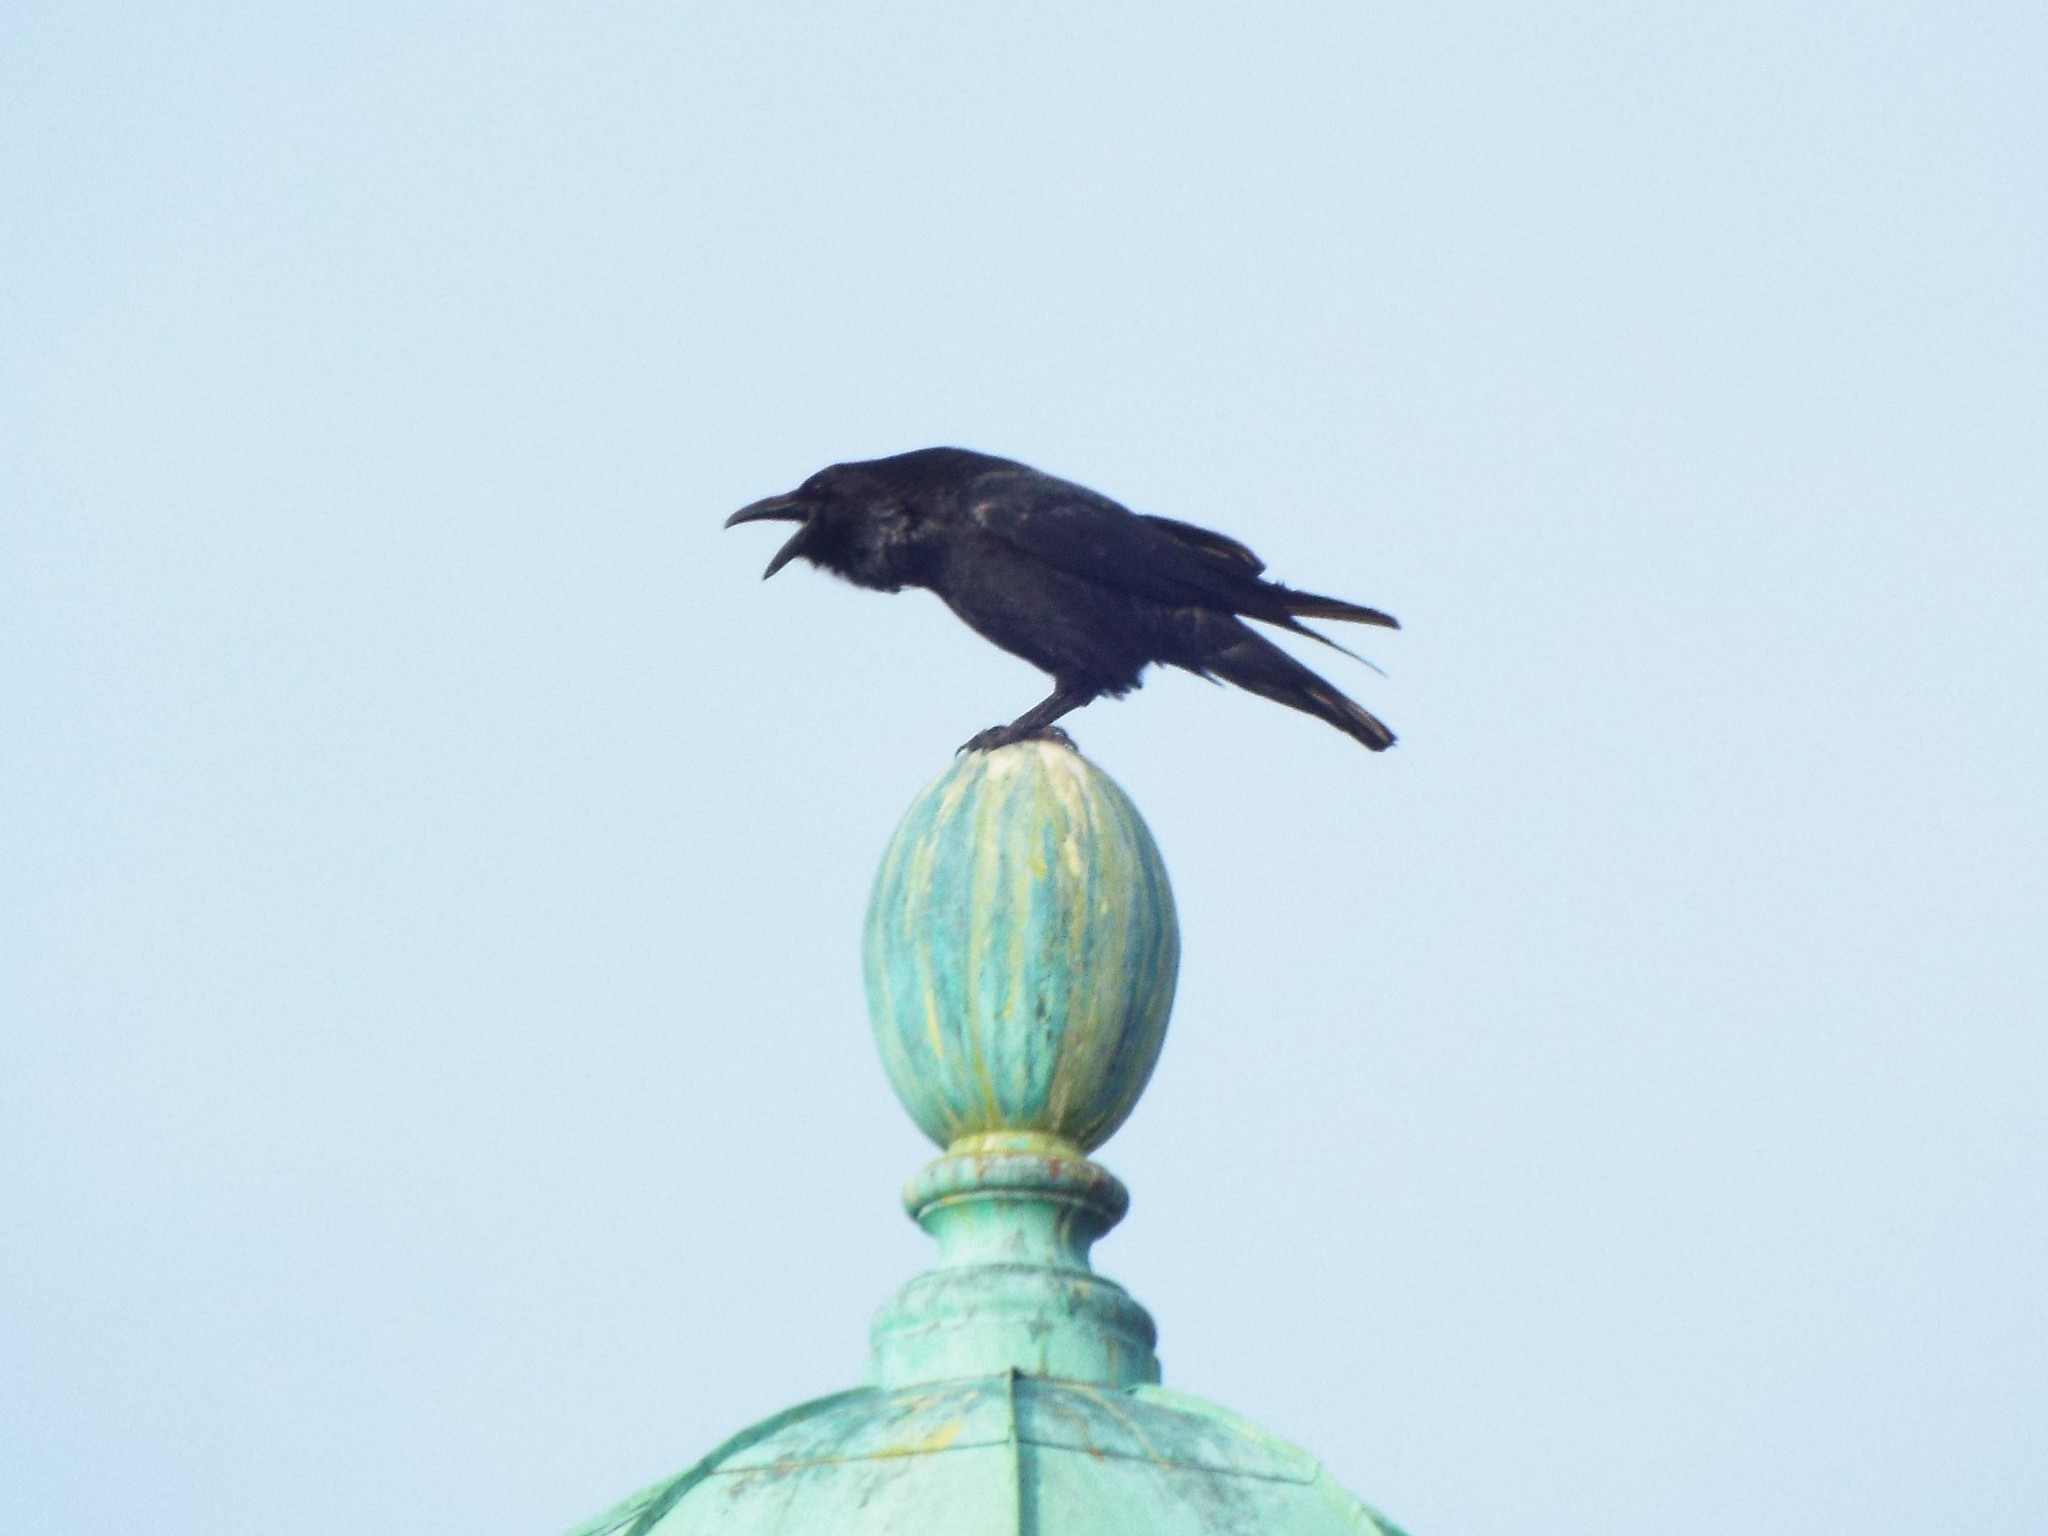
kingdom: Animalia
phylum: Chordata
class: Aves
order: Passeriformes
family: Corvidae
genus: Corvus
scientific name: Corvus corax
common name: Common raven
